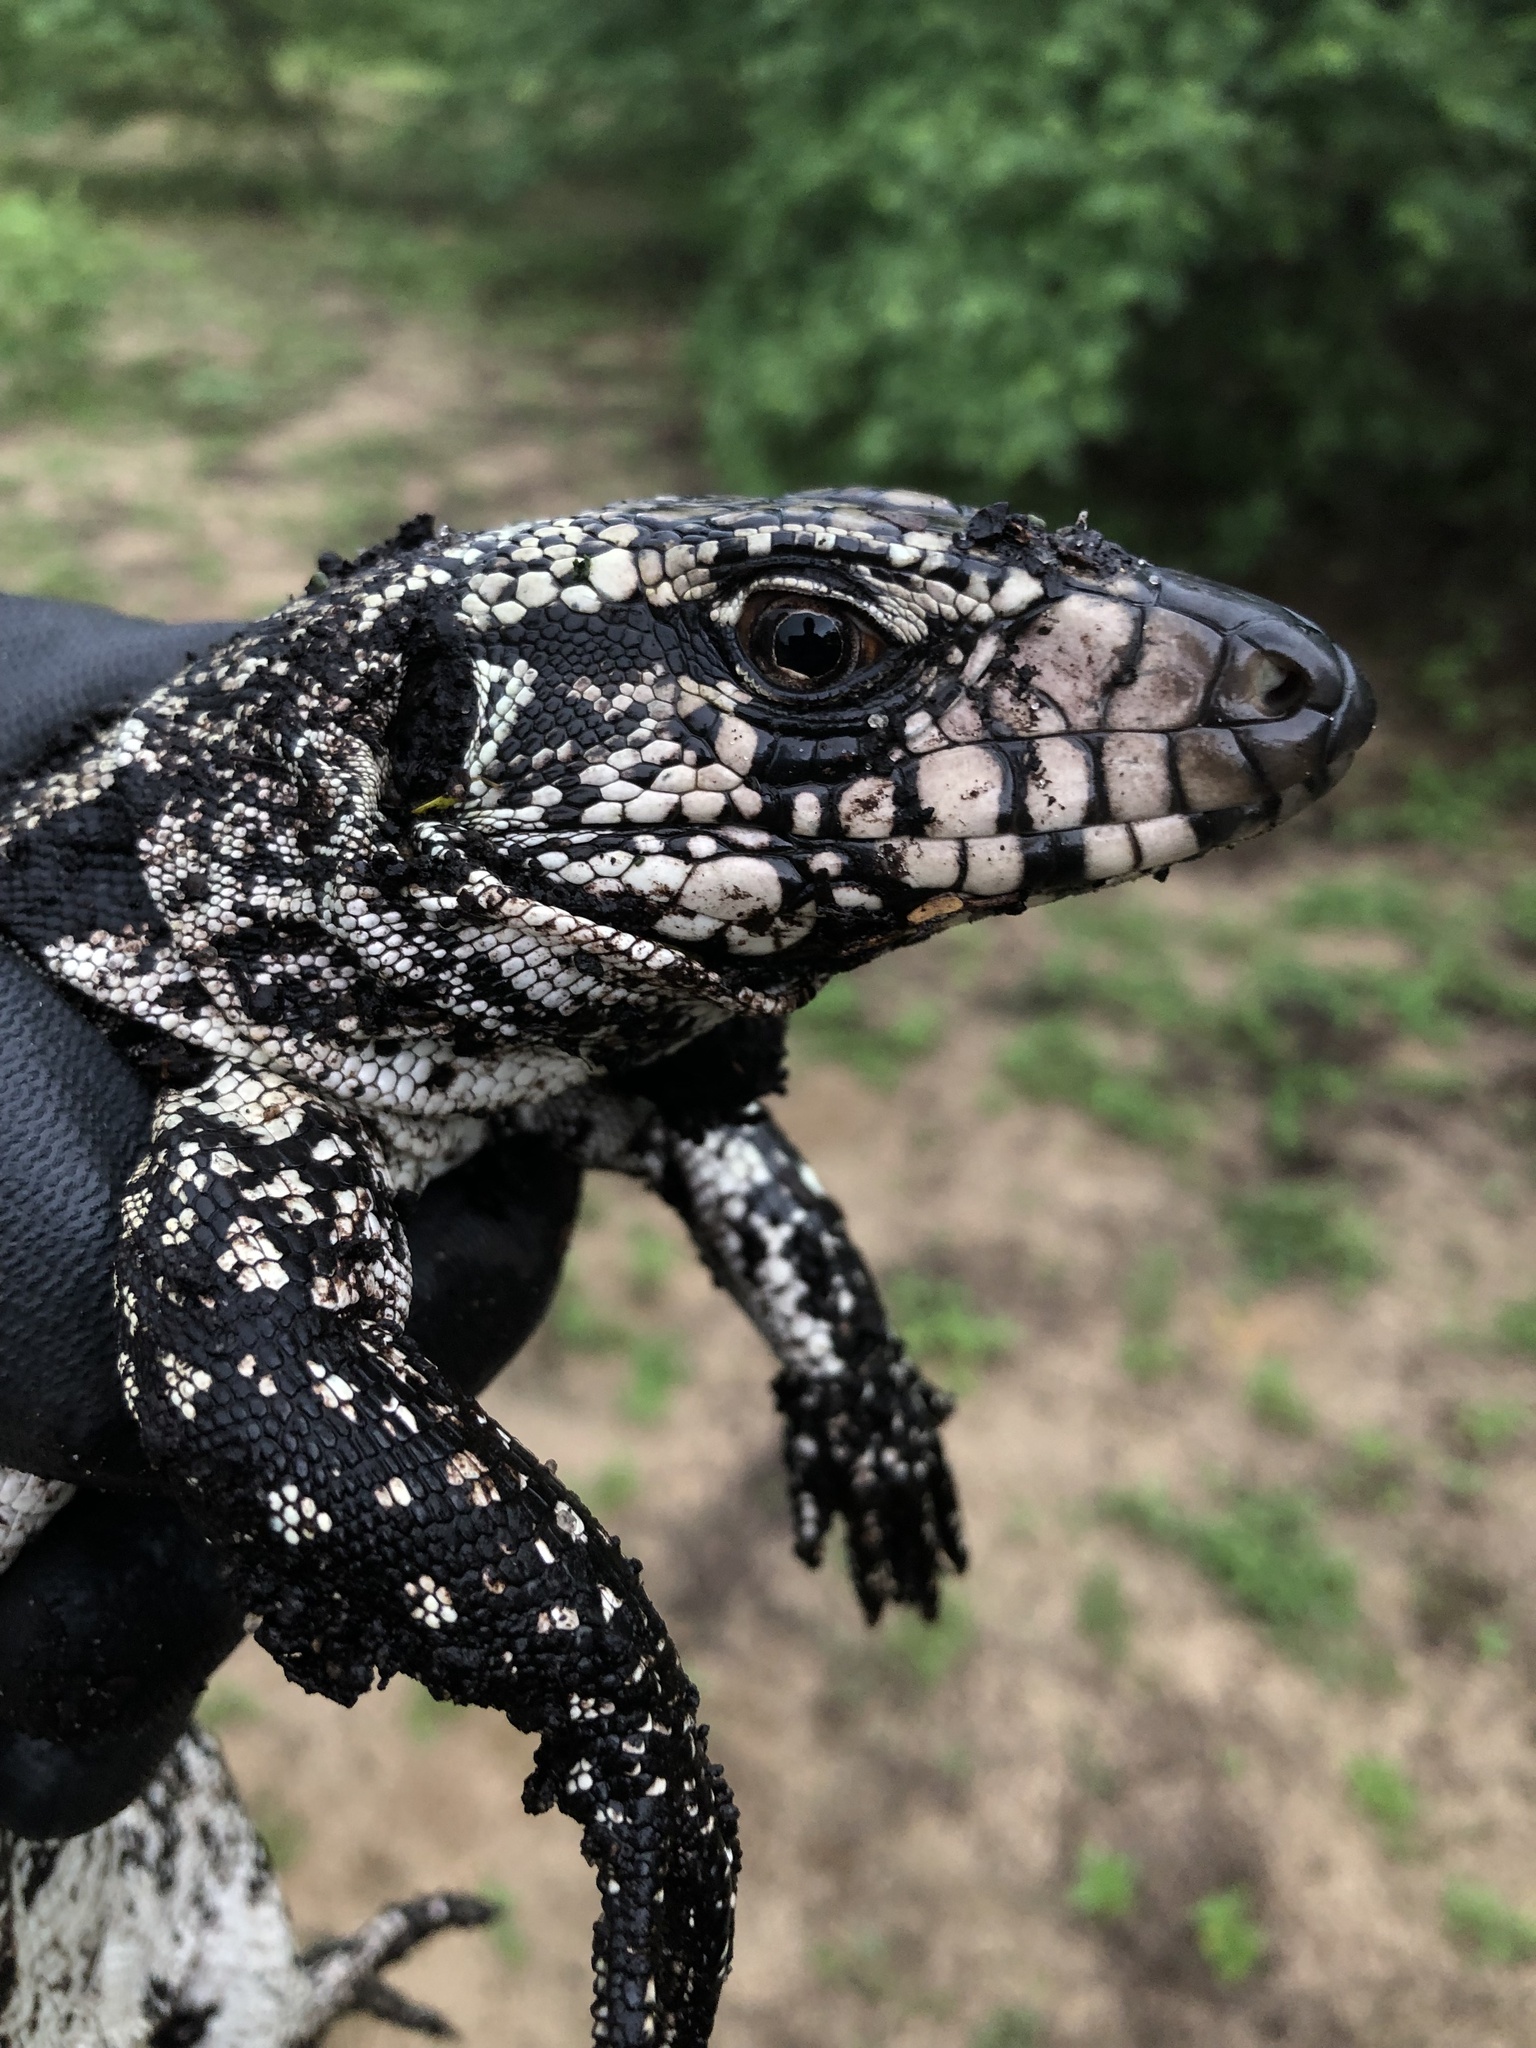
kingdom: Animalia
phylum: Chordata
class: Squamata
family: Teiidae
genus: Salvator
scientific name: Salvator merianae
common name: Argentine black and white tegu
